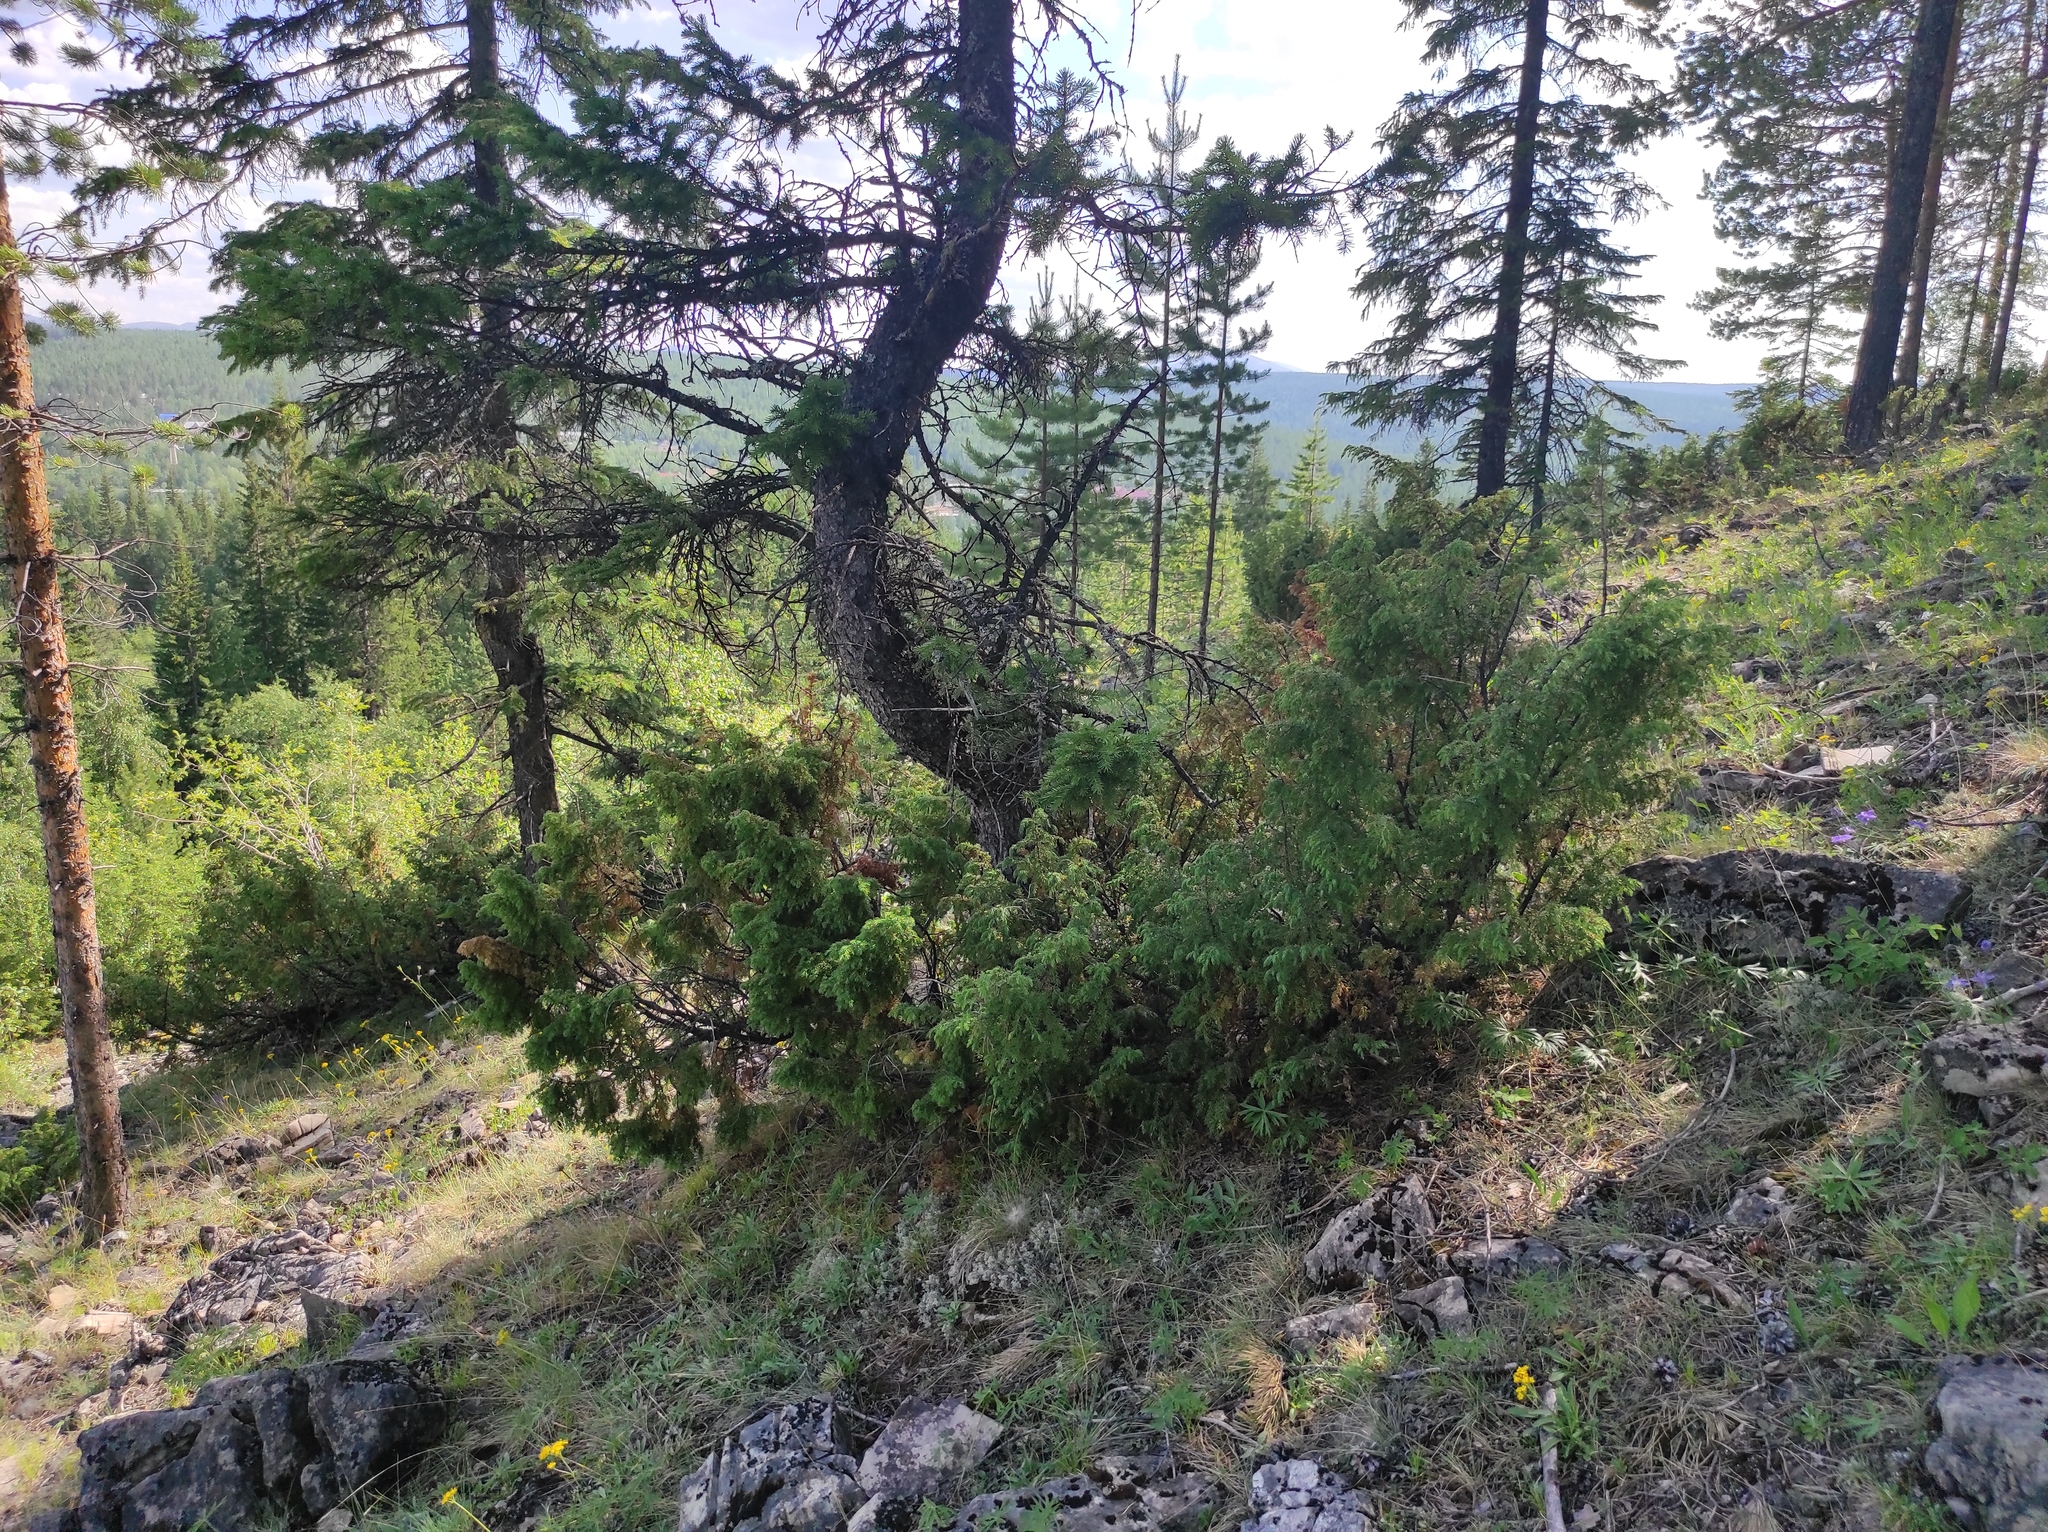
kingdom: Plantae
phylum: Tracheophyta
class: Pinopsida
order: Pinales
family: Cupressaceae
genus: Juniperus
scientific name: Juniperus communis
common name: Common juniper
